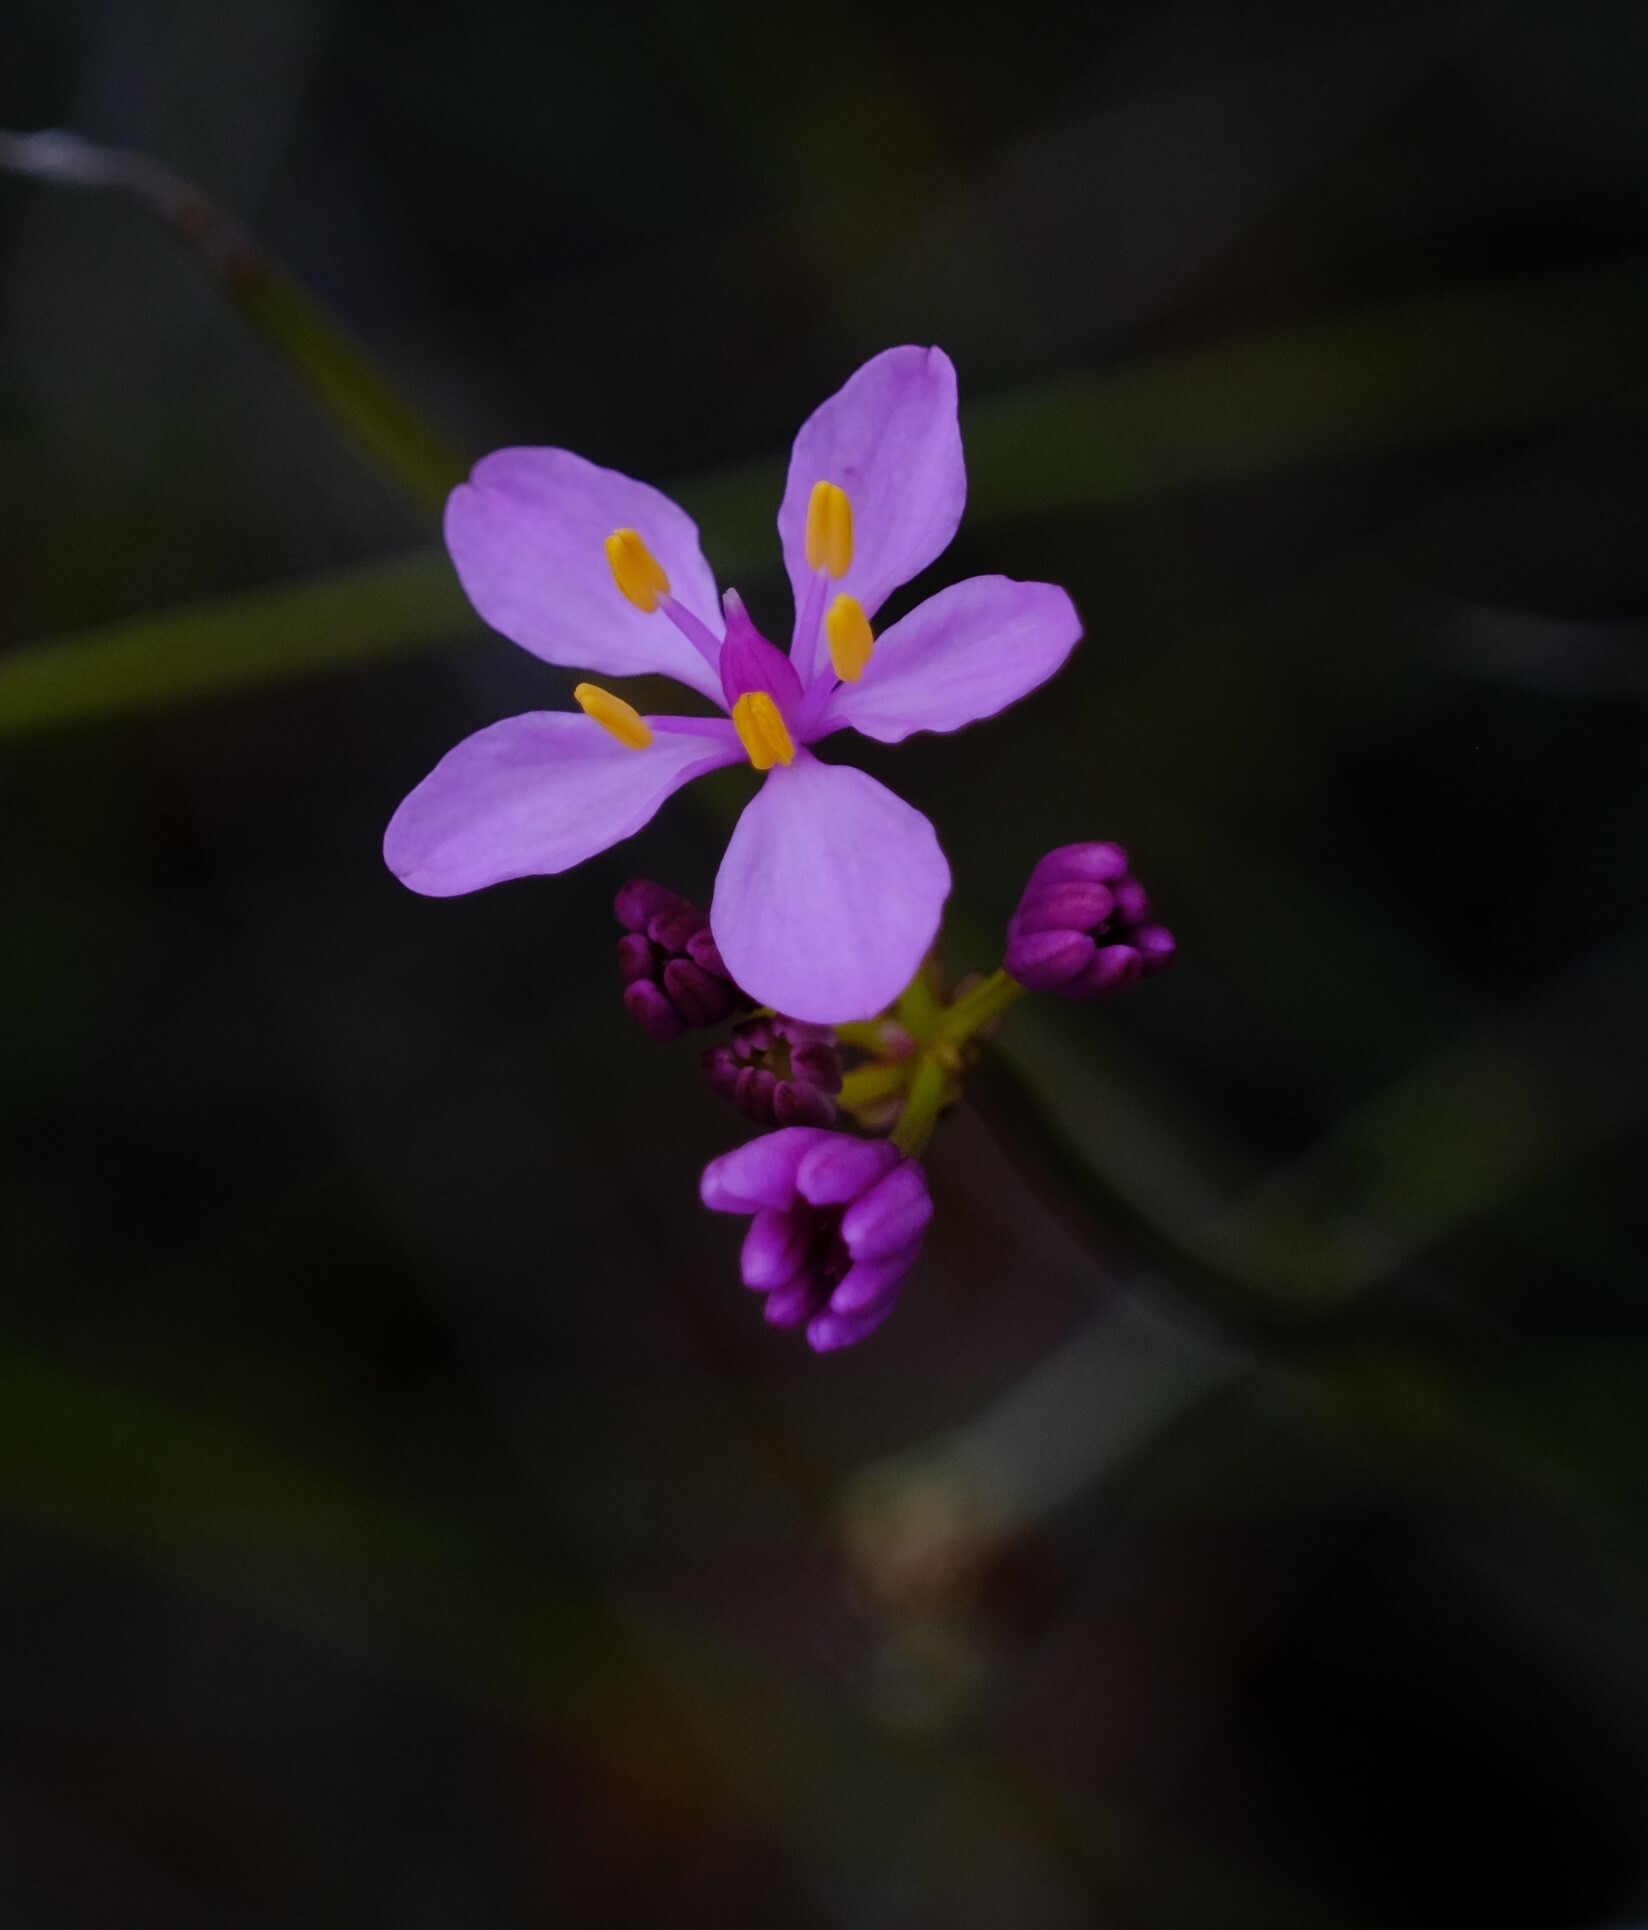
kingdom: Plantae
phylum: Tracheophyta
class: Liliopsida
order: Liliales
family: Colchicaceae
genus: Burchardia
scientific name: Burchardia rosea
